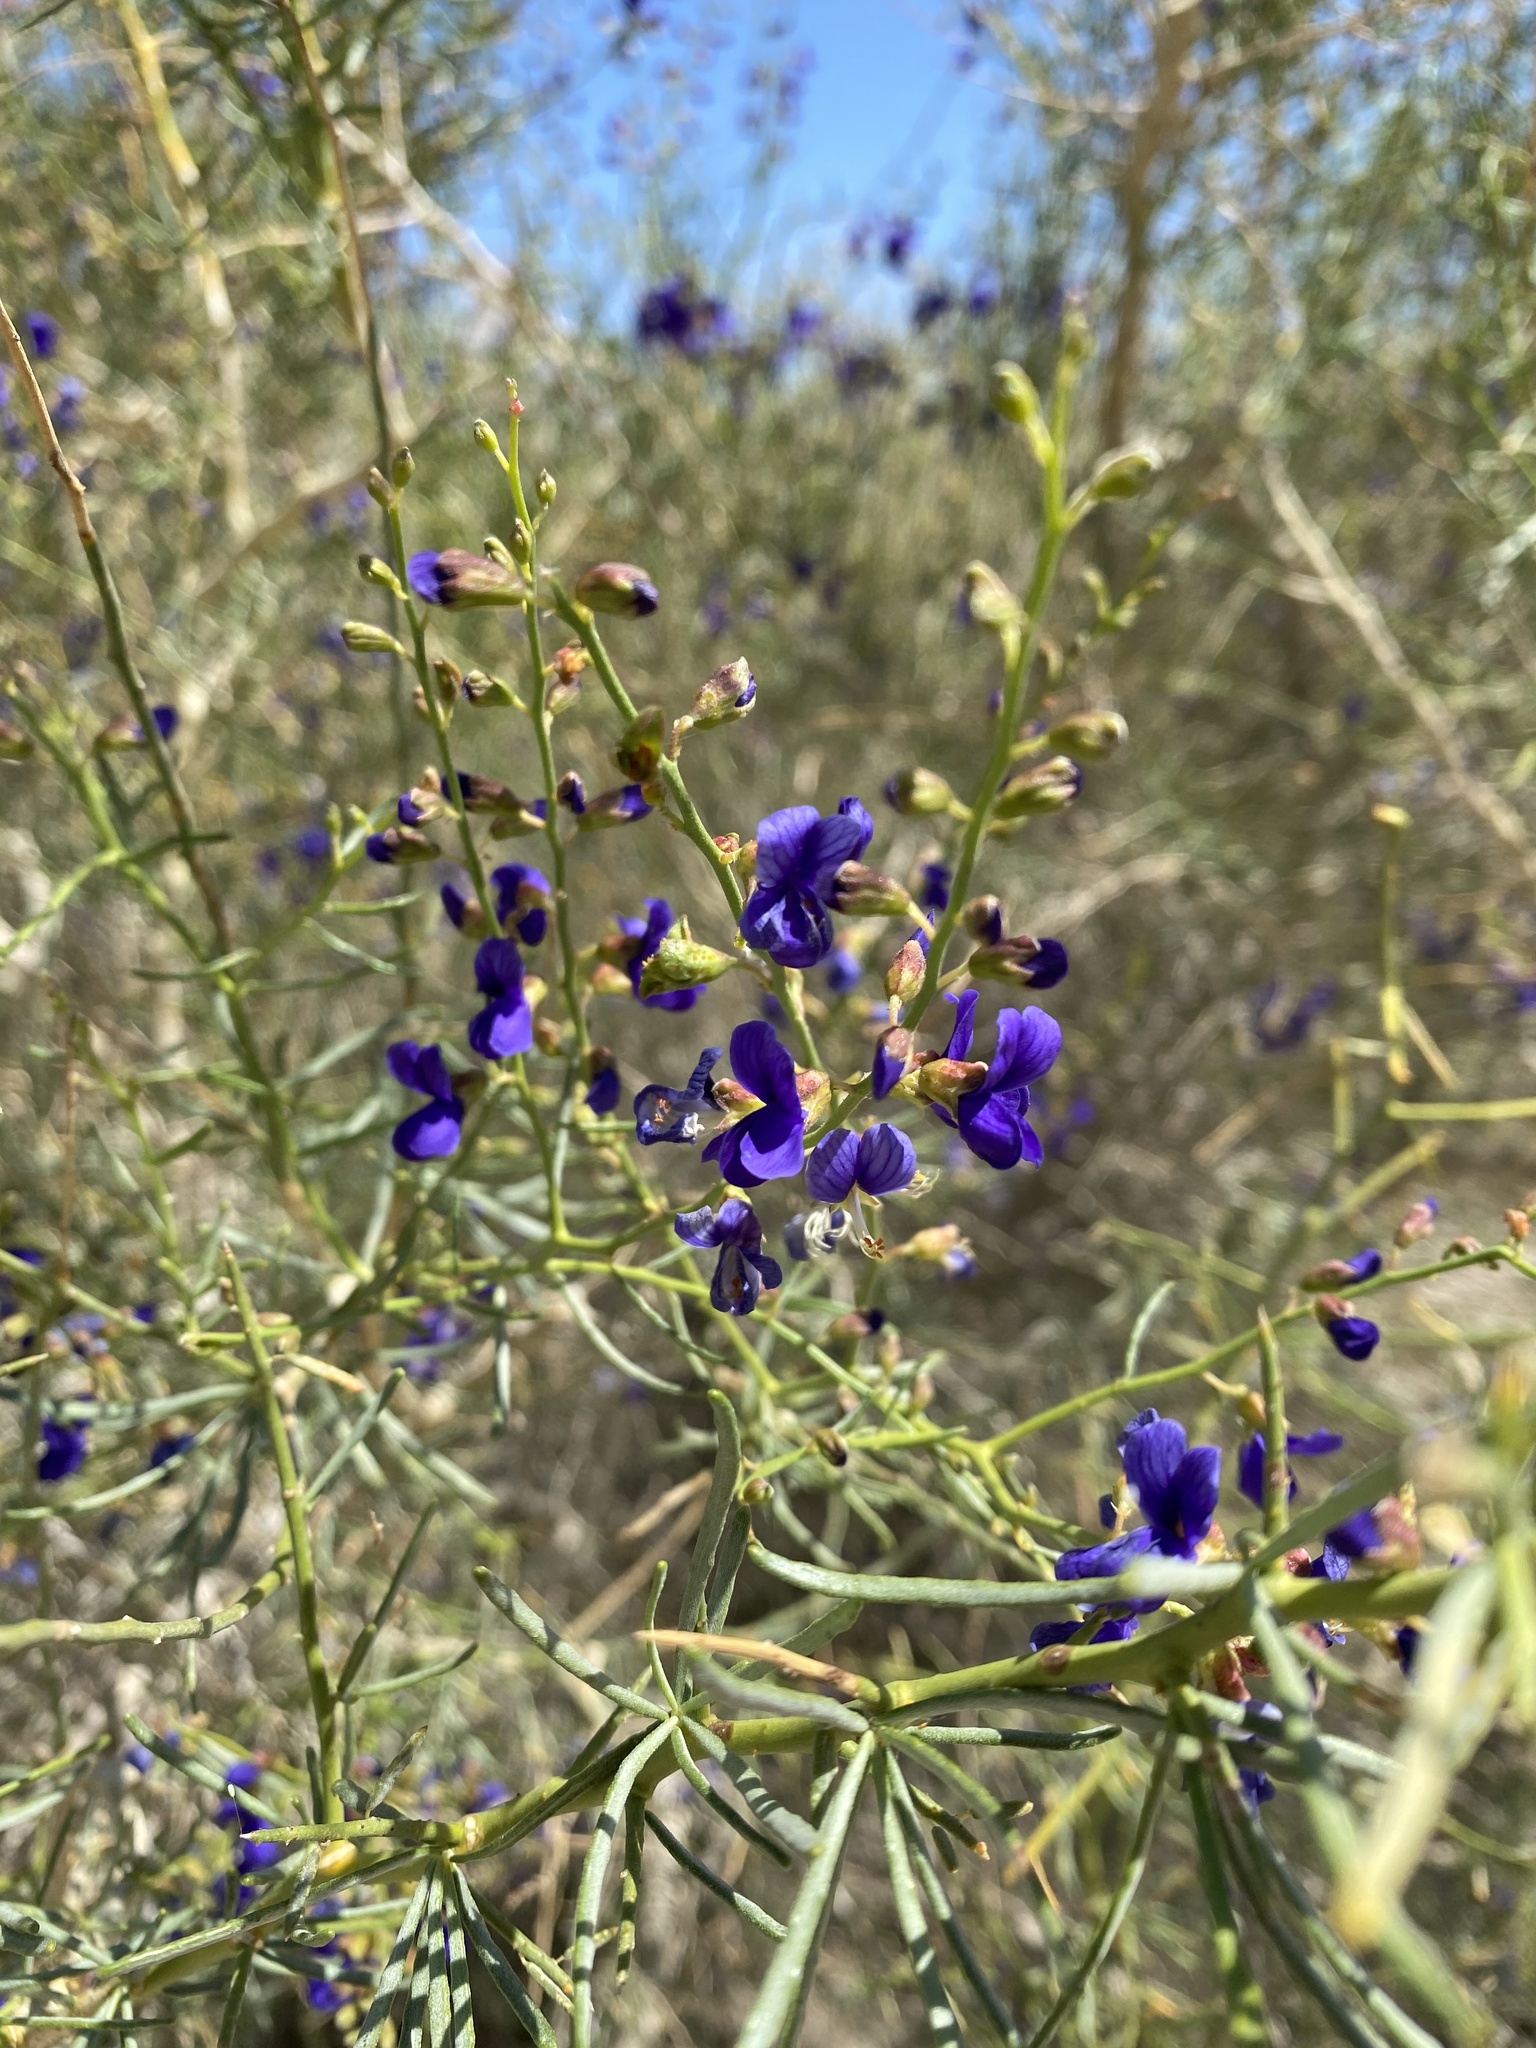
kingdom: Plantae
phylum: Tracheophyta
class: Magnoliopsida
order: Fabales
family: Fabaceae
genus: Psorothamnus
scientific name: Psorothamnus schottii
